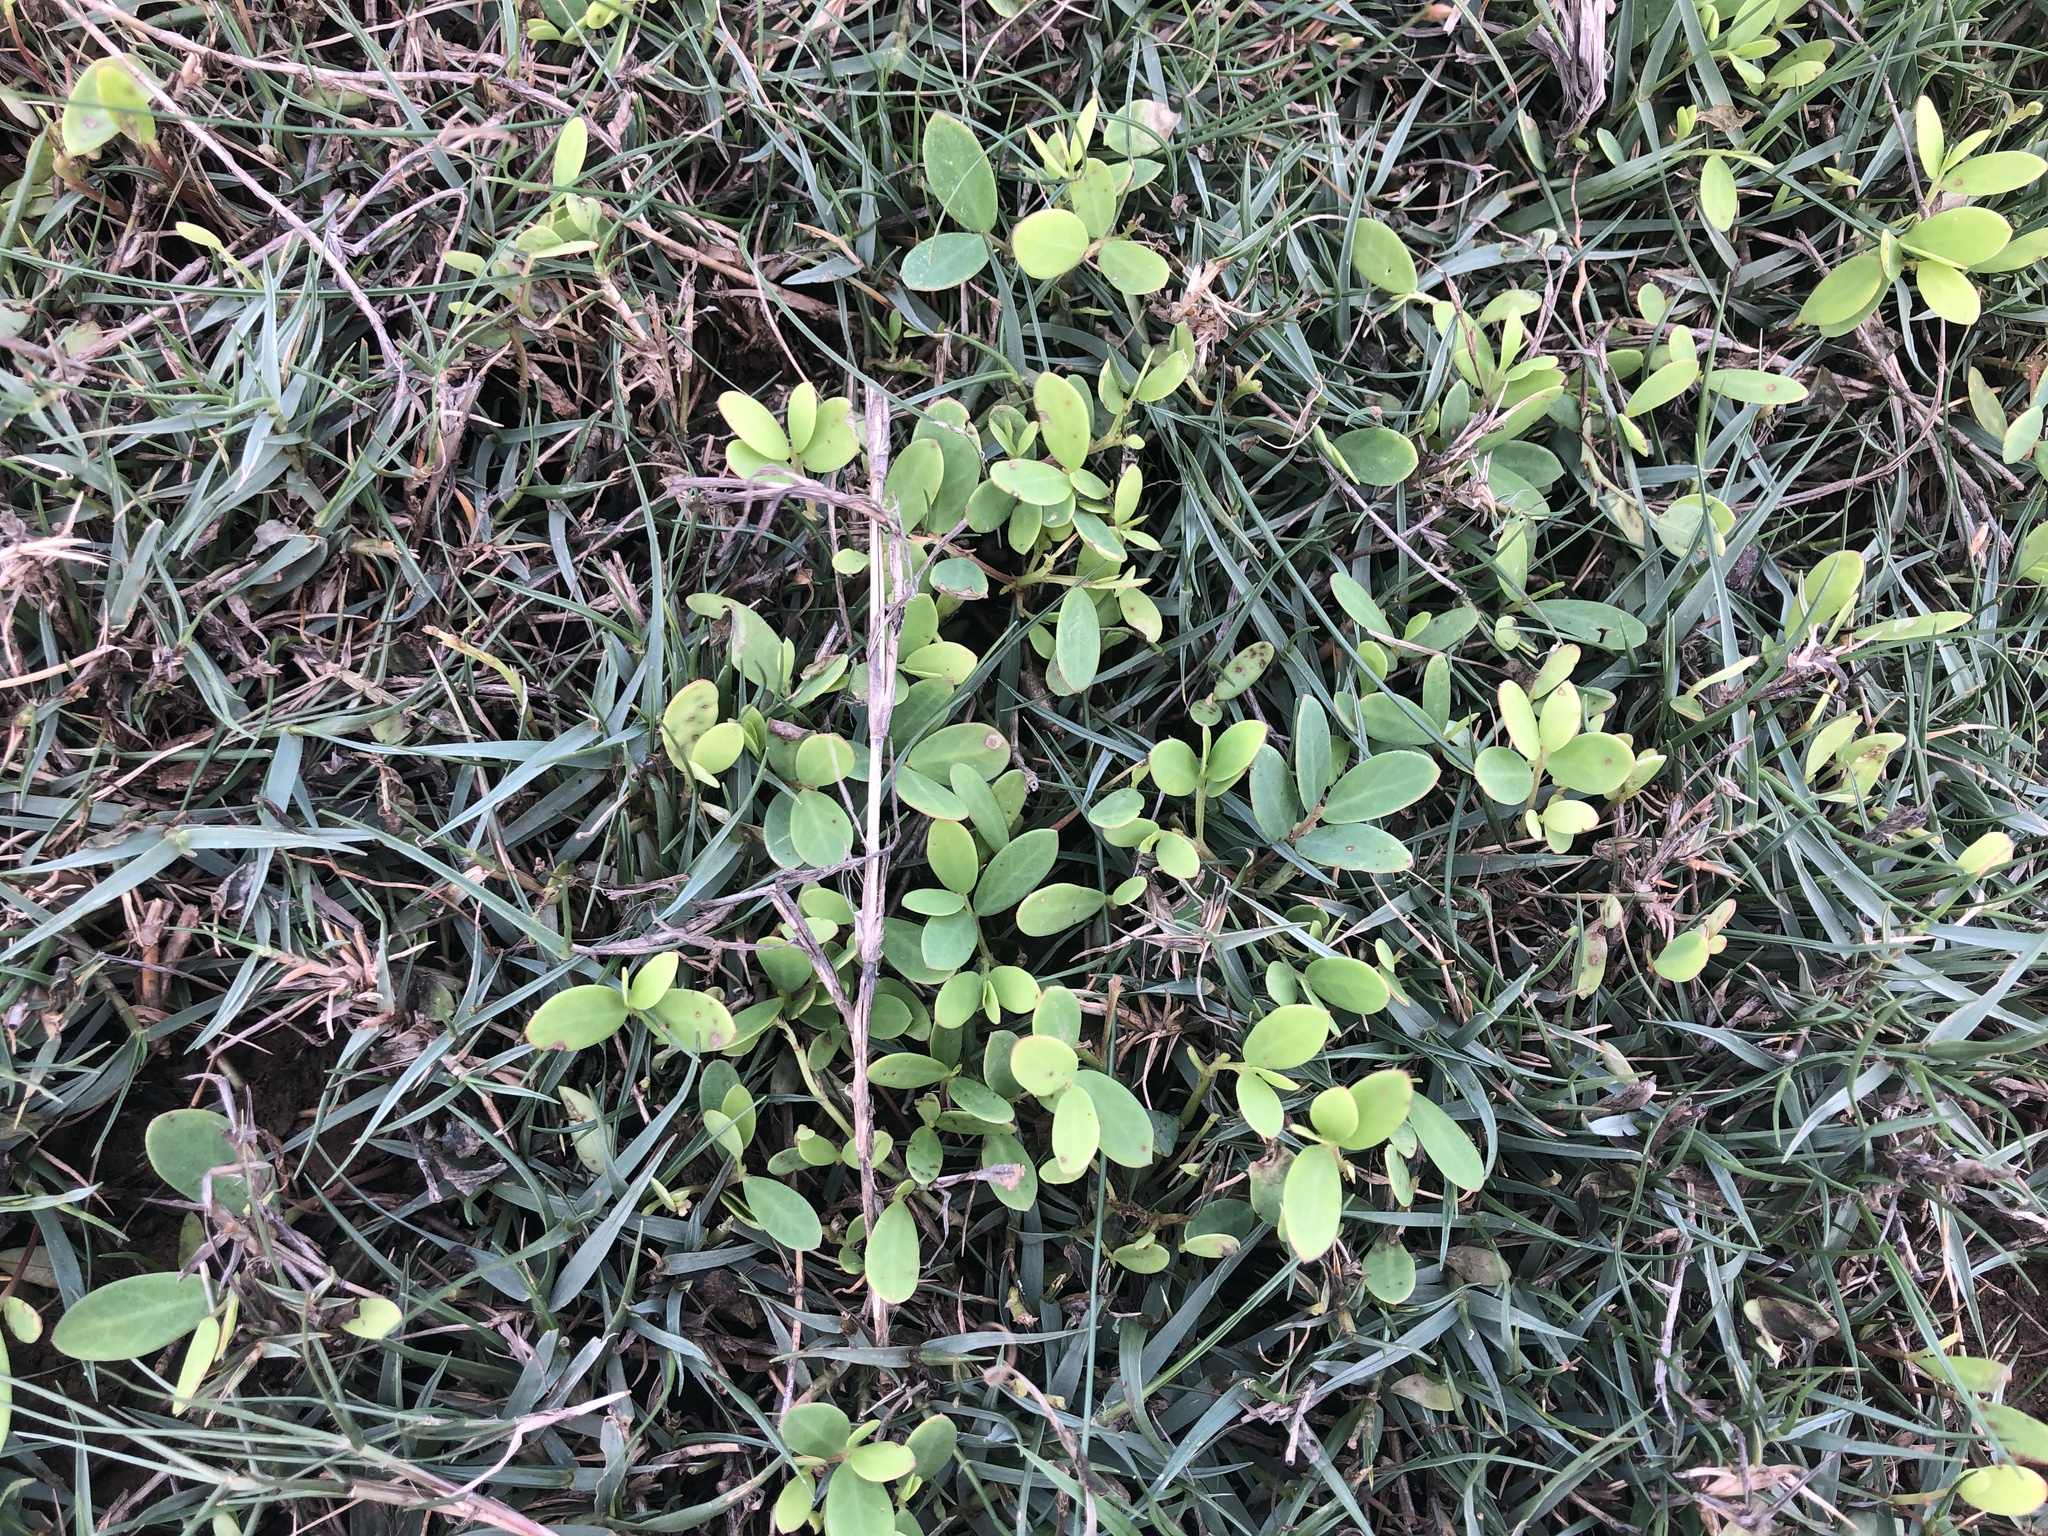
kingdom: Plantae
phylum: Tracheophyta
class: Magnoliopsida
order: Malpighiales
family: Phyllanthaceae
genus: Synostemon
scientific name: Synostemon bacciformis
